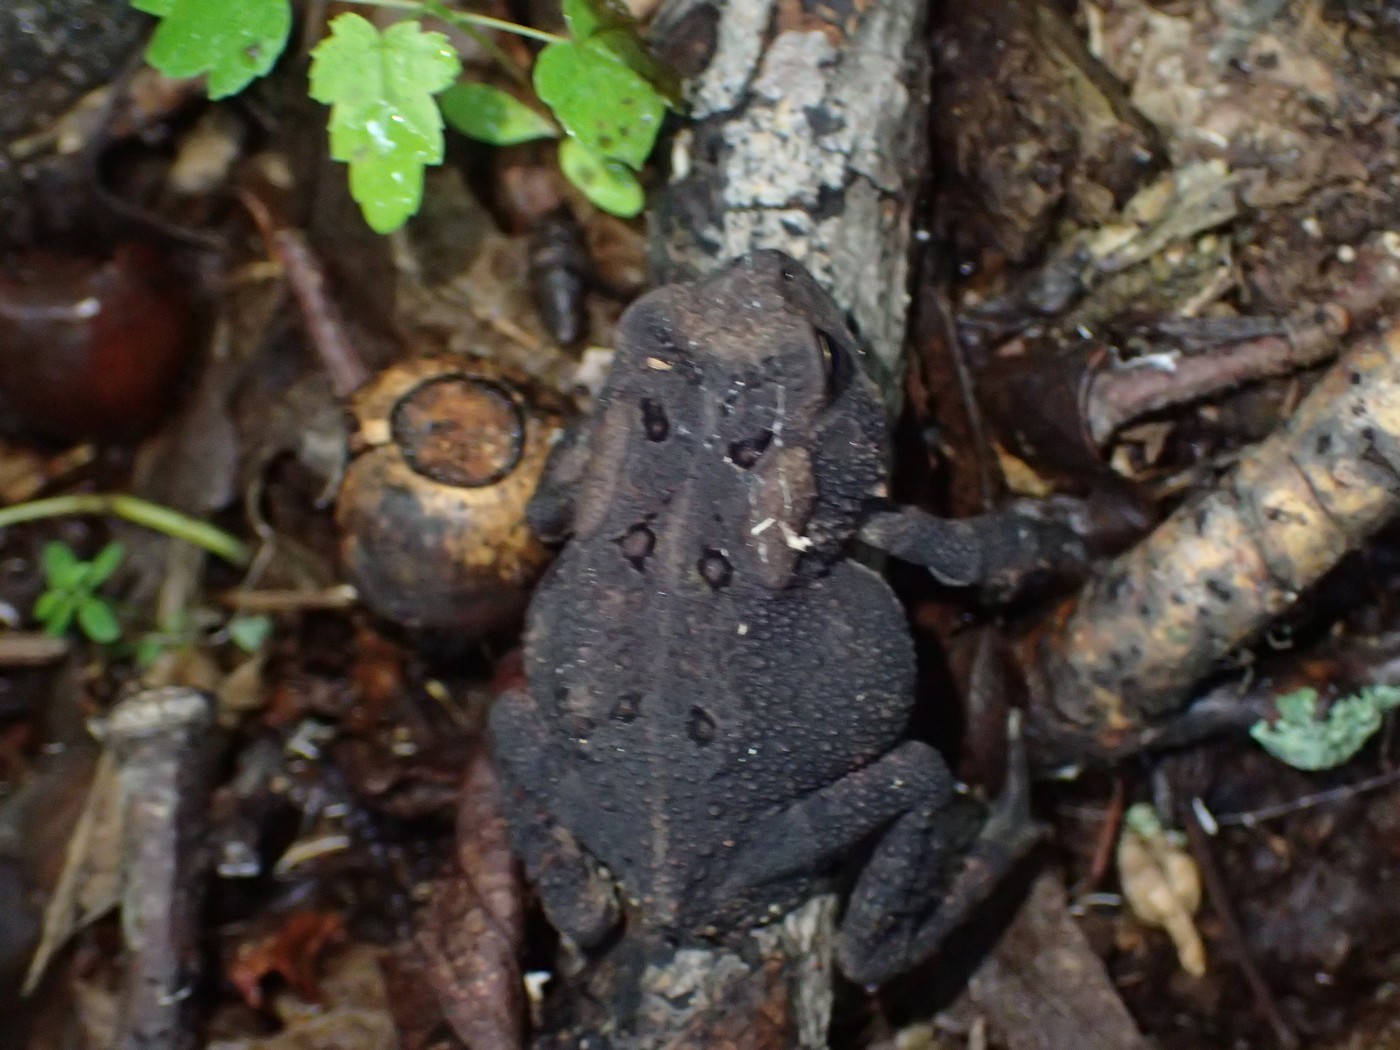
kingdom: Animalia
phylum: Chordata
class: Amphibia
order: Anura
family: Bufonidae
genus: Anaxyrus
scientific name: Anaxyrus americanus
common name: American toad
